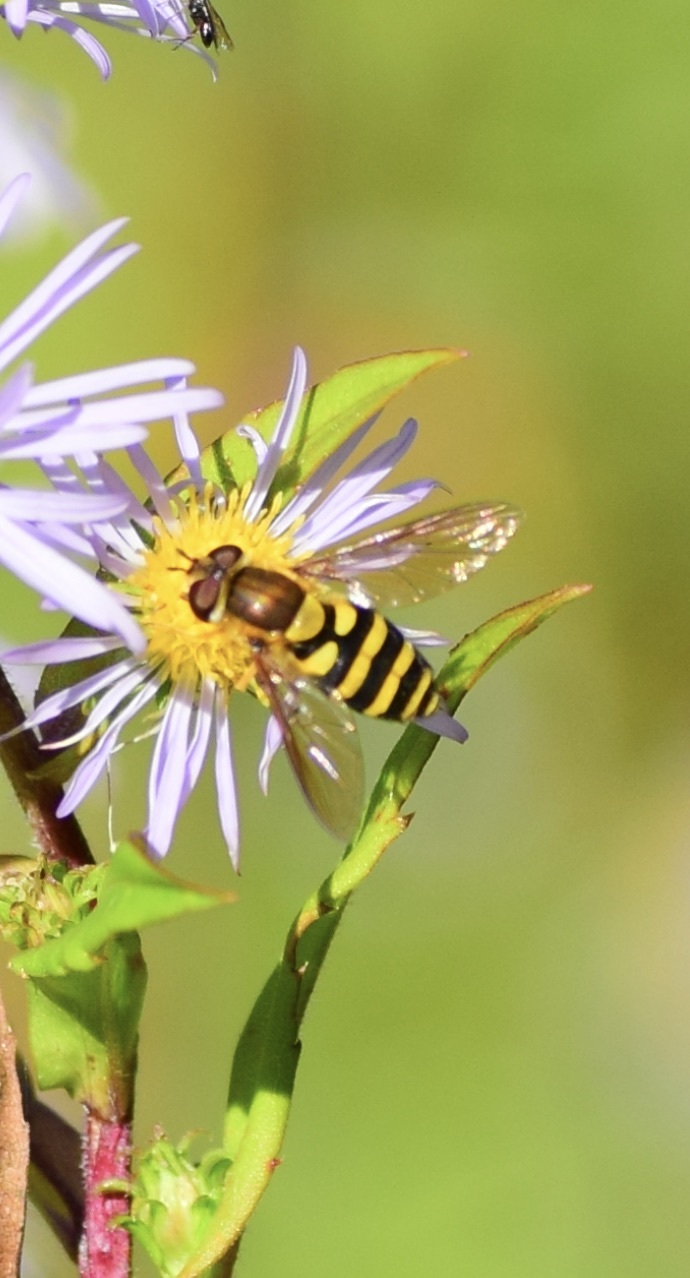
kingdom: Animalia
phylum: Arthropoda
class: Insecta
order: Diptera
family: Syrphidae
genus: Syrphus
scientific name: Syrphus
